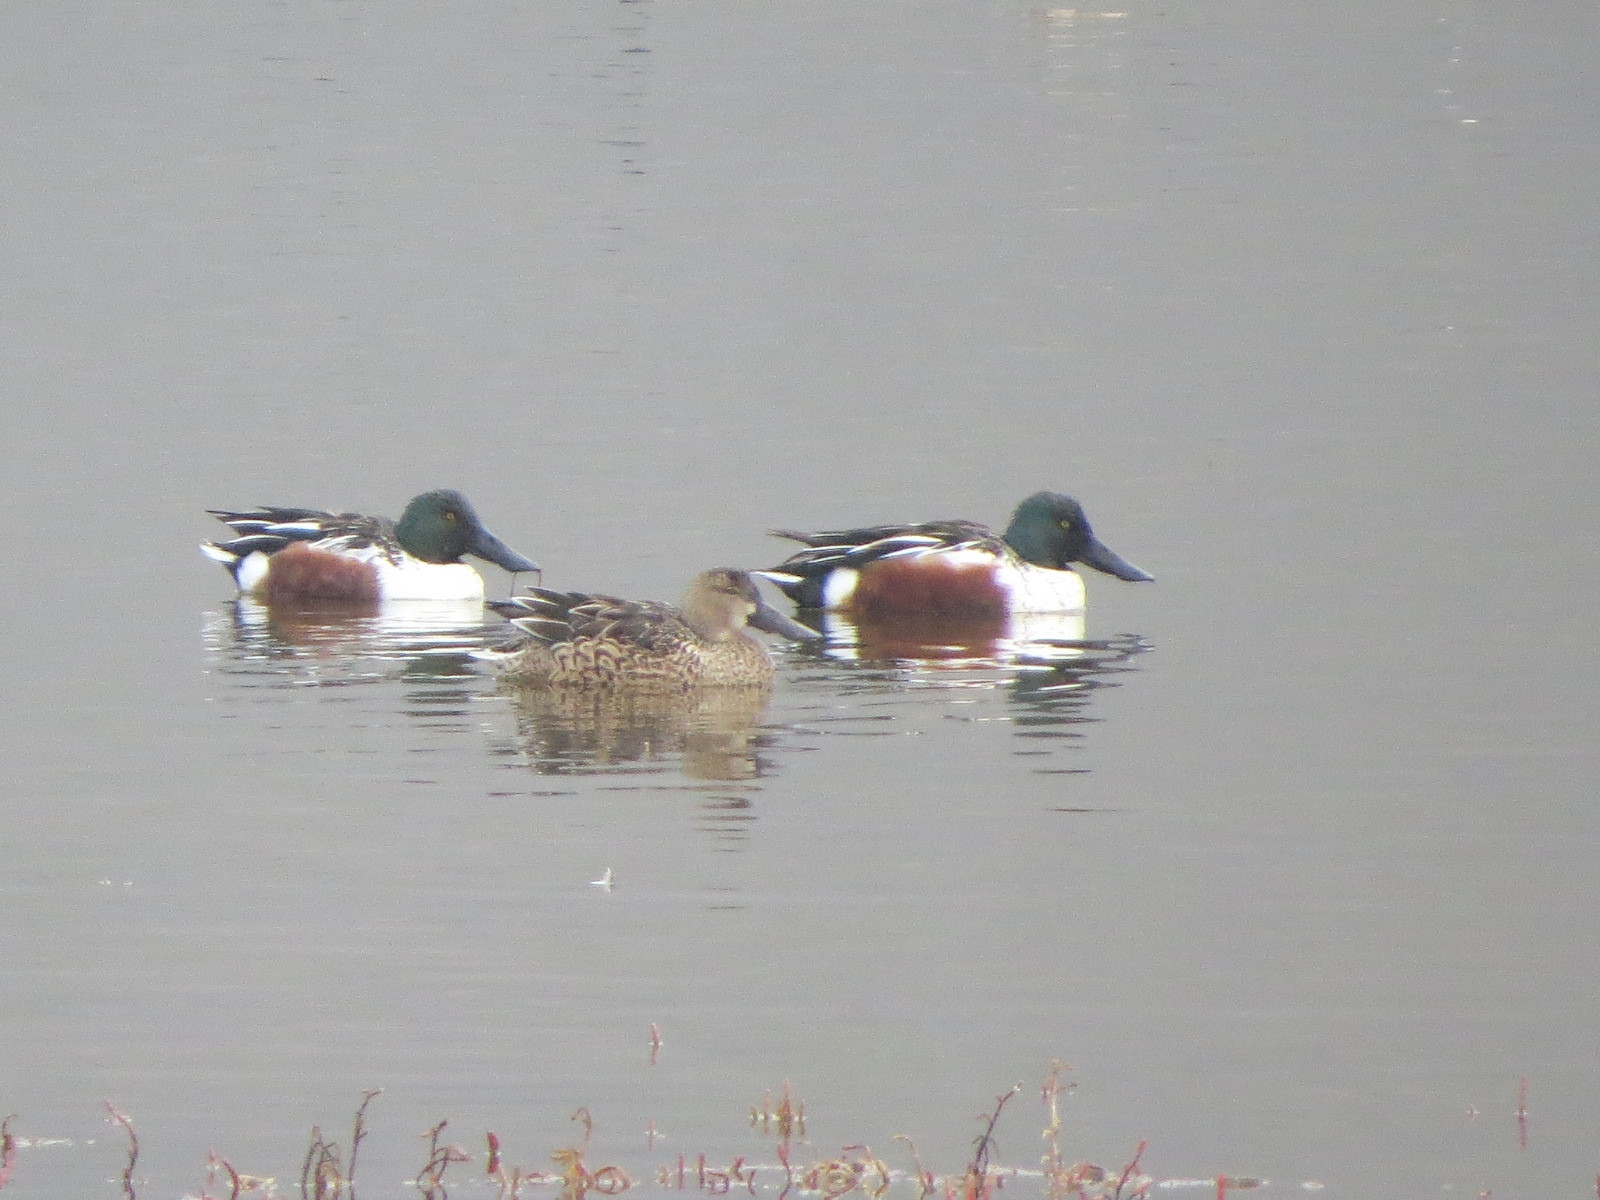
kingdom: Animalia
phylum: Chordata
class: Aves
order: Anseriformes
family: Anatidae
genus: Spatula
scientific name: Spatula clypeata
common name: Northern shoveler
